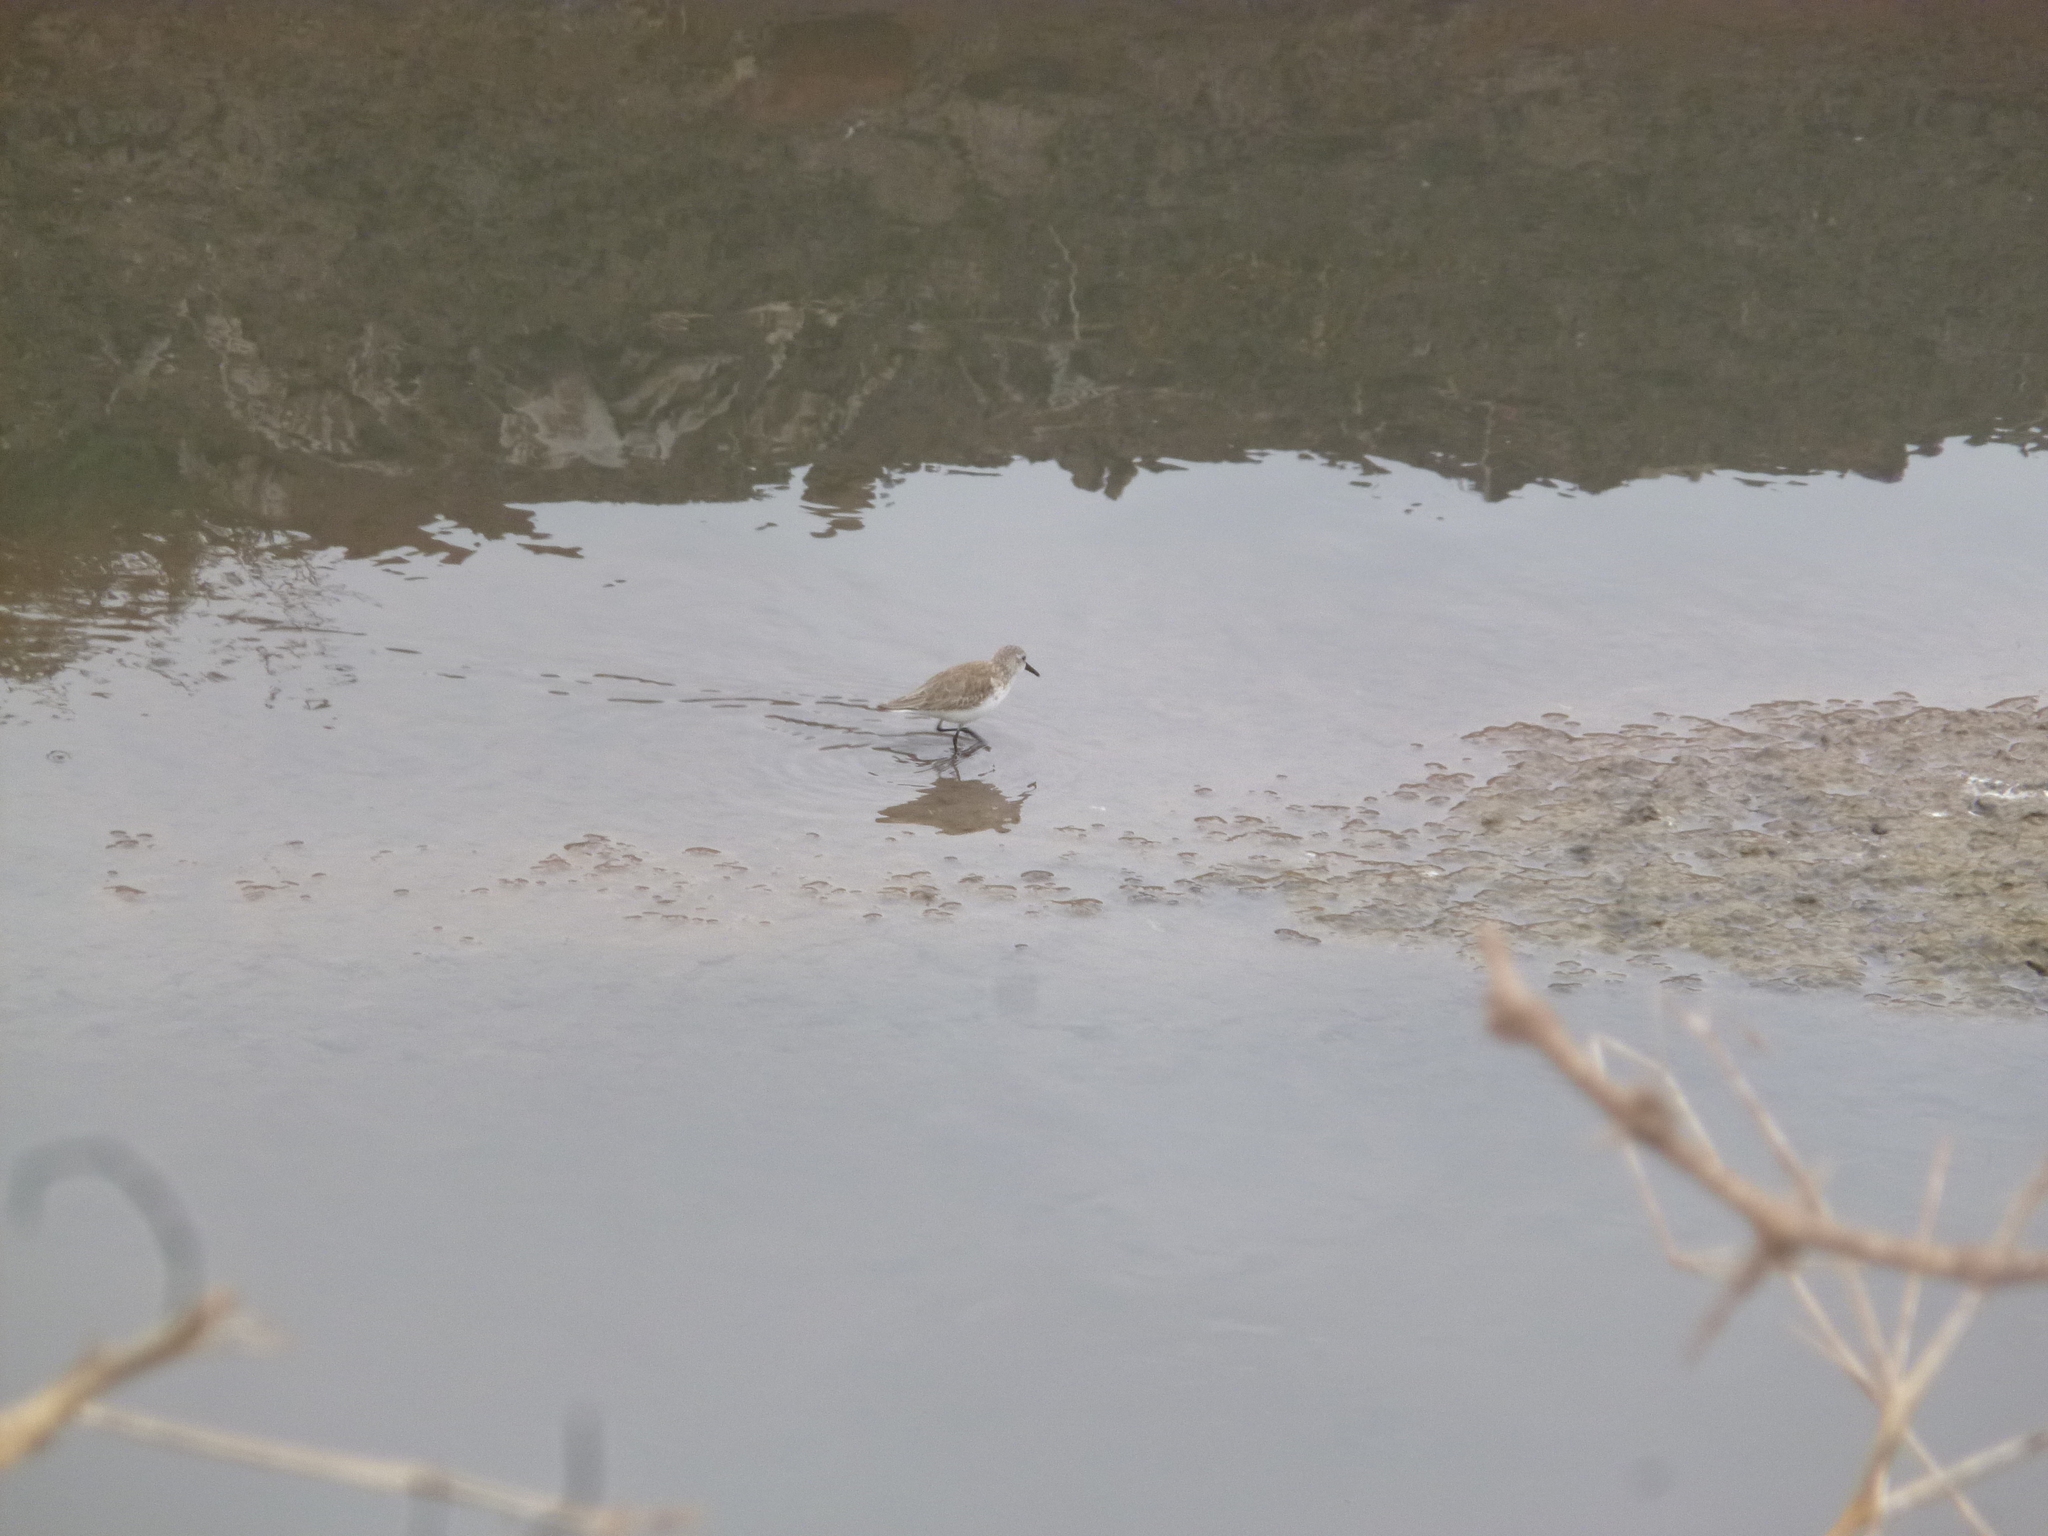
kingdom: Animalia
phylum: Chordata
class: Aves
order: Charadriiformes
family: Scolopacidae
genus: Calidris
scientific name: Calidris mauri
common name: Western sandpiper
